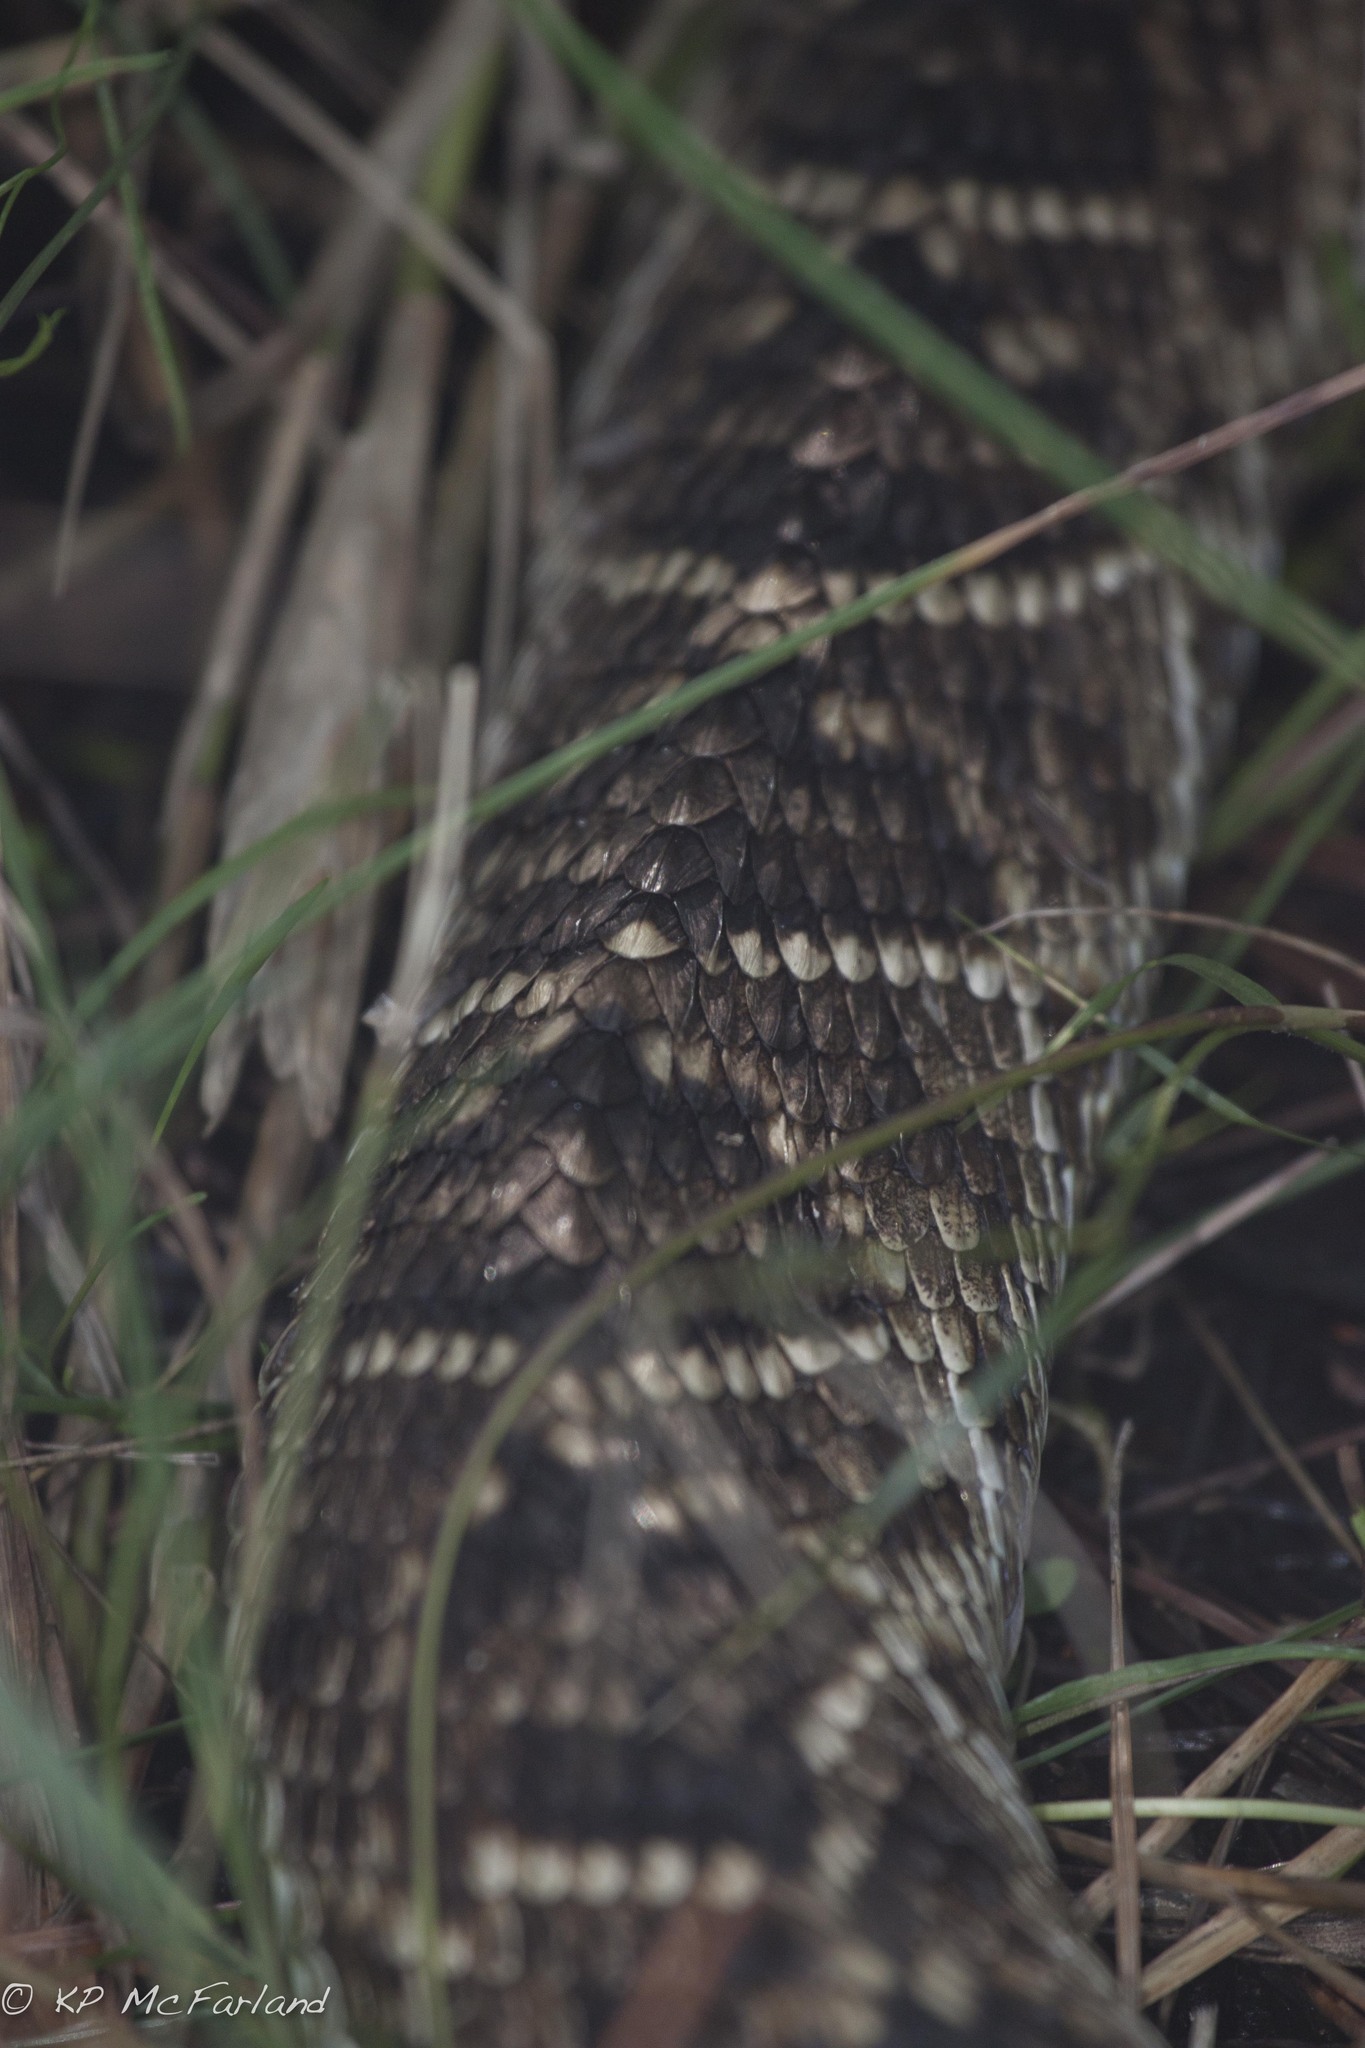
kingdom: Animalia
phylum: Chordata
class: Squamata
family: Viperidae
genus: Crotalus
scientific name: Crotalus adamanteus
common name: Eastern diamondback rattlesnake
